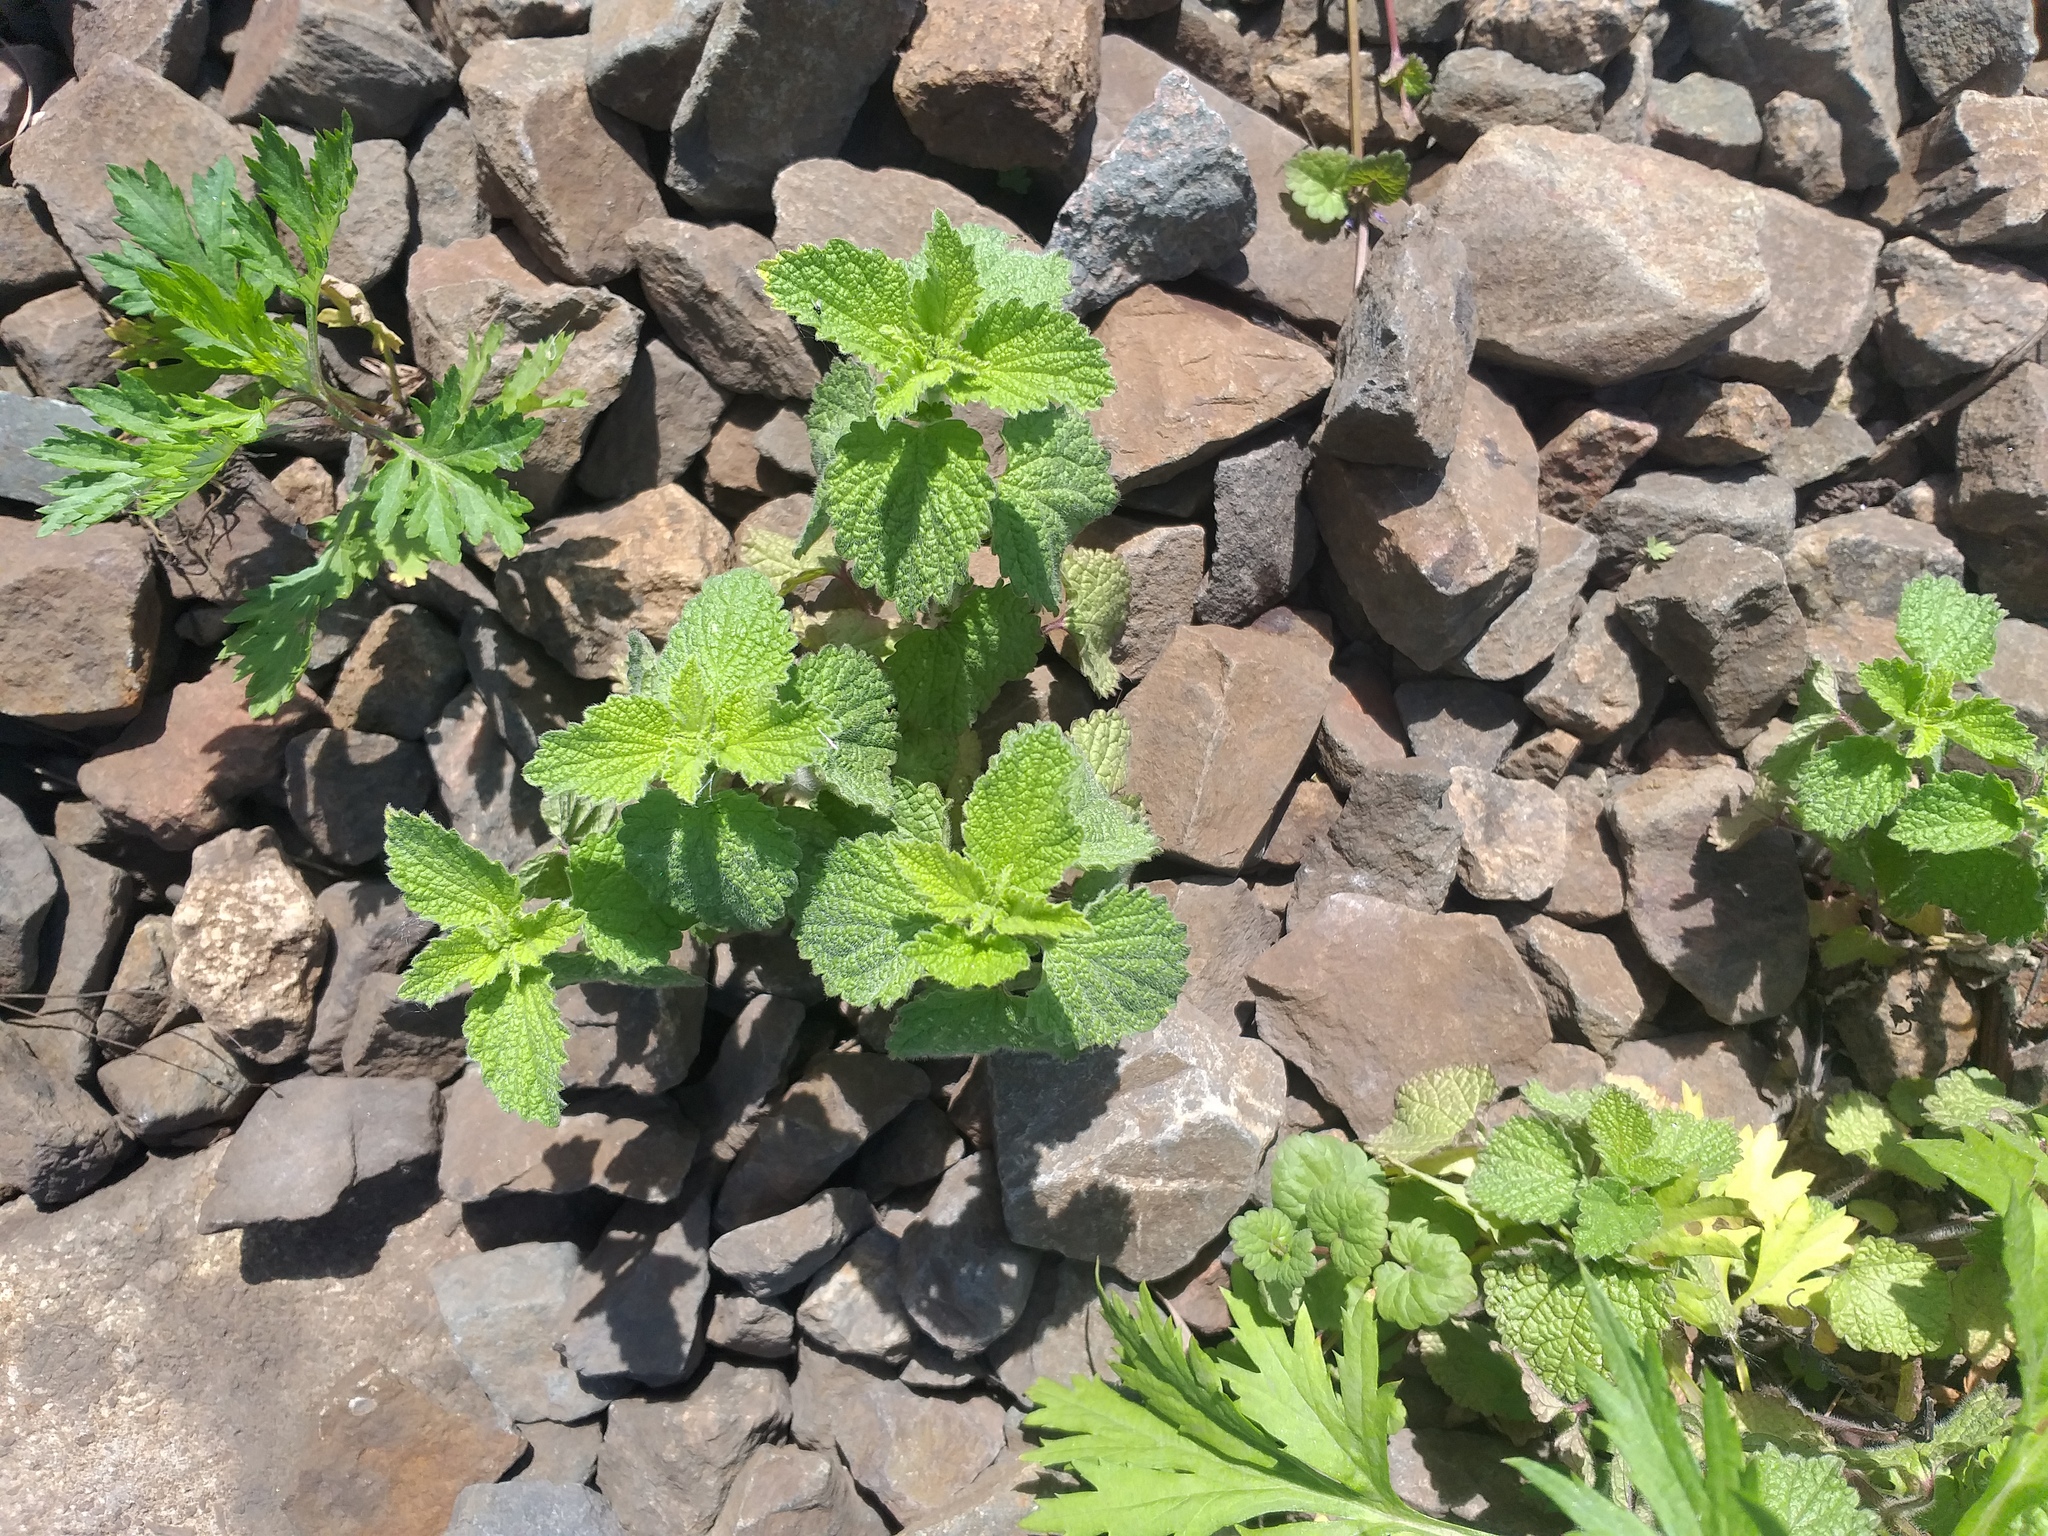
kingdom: Plantae
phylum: Tracheophyta
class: Magnoliopsida
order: Lamiales
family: Lamiaceae
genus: Ballota
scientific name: Ballota nigra
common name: Black horehound
